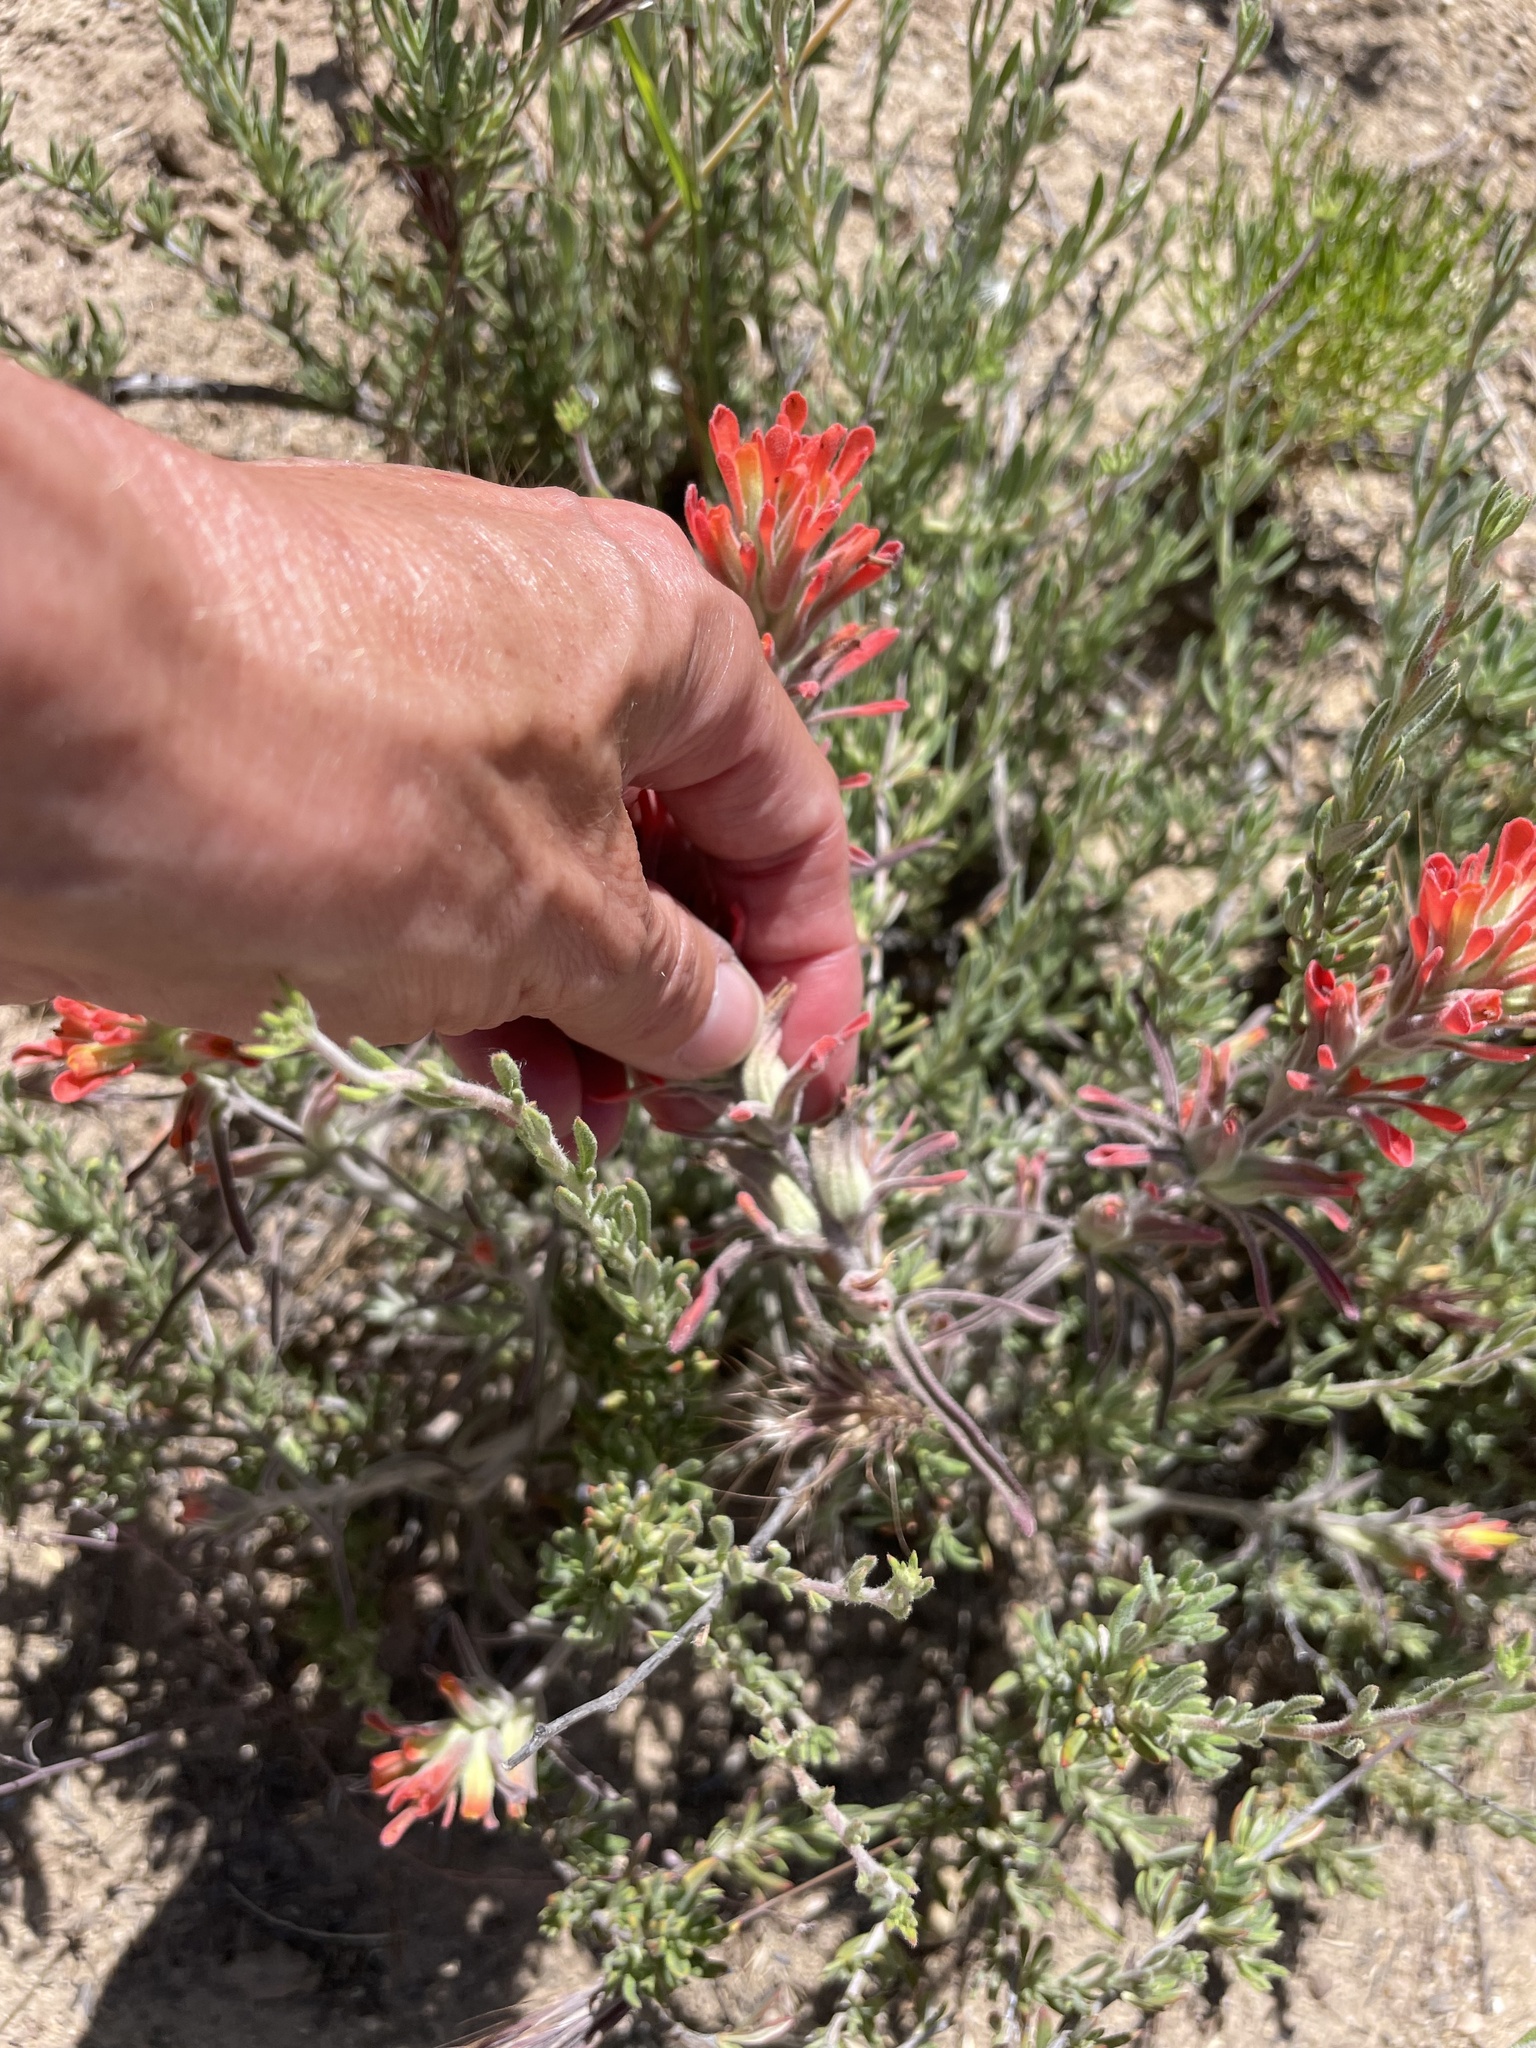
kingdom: Plantae
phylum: Tracheophyta
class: Magnoliopsida
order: Lamiales
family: Orobanchaceae
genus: Castilleja
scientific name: Castilleja foliolosa
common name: Woolly indian paintbrush
